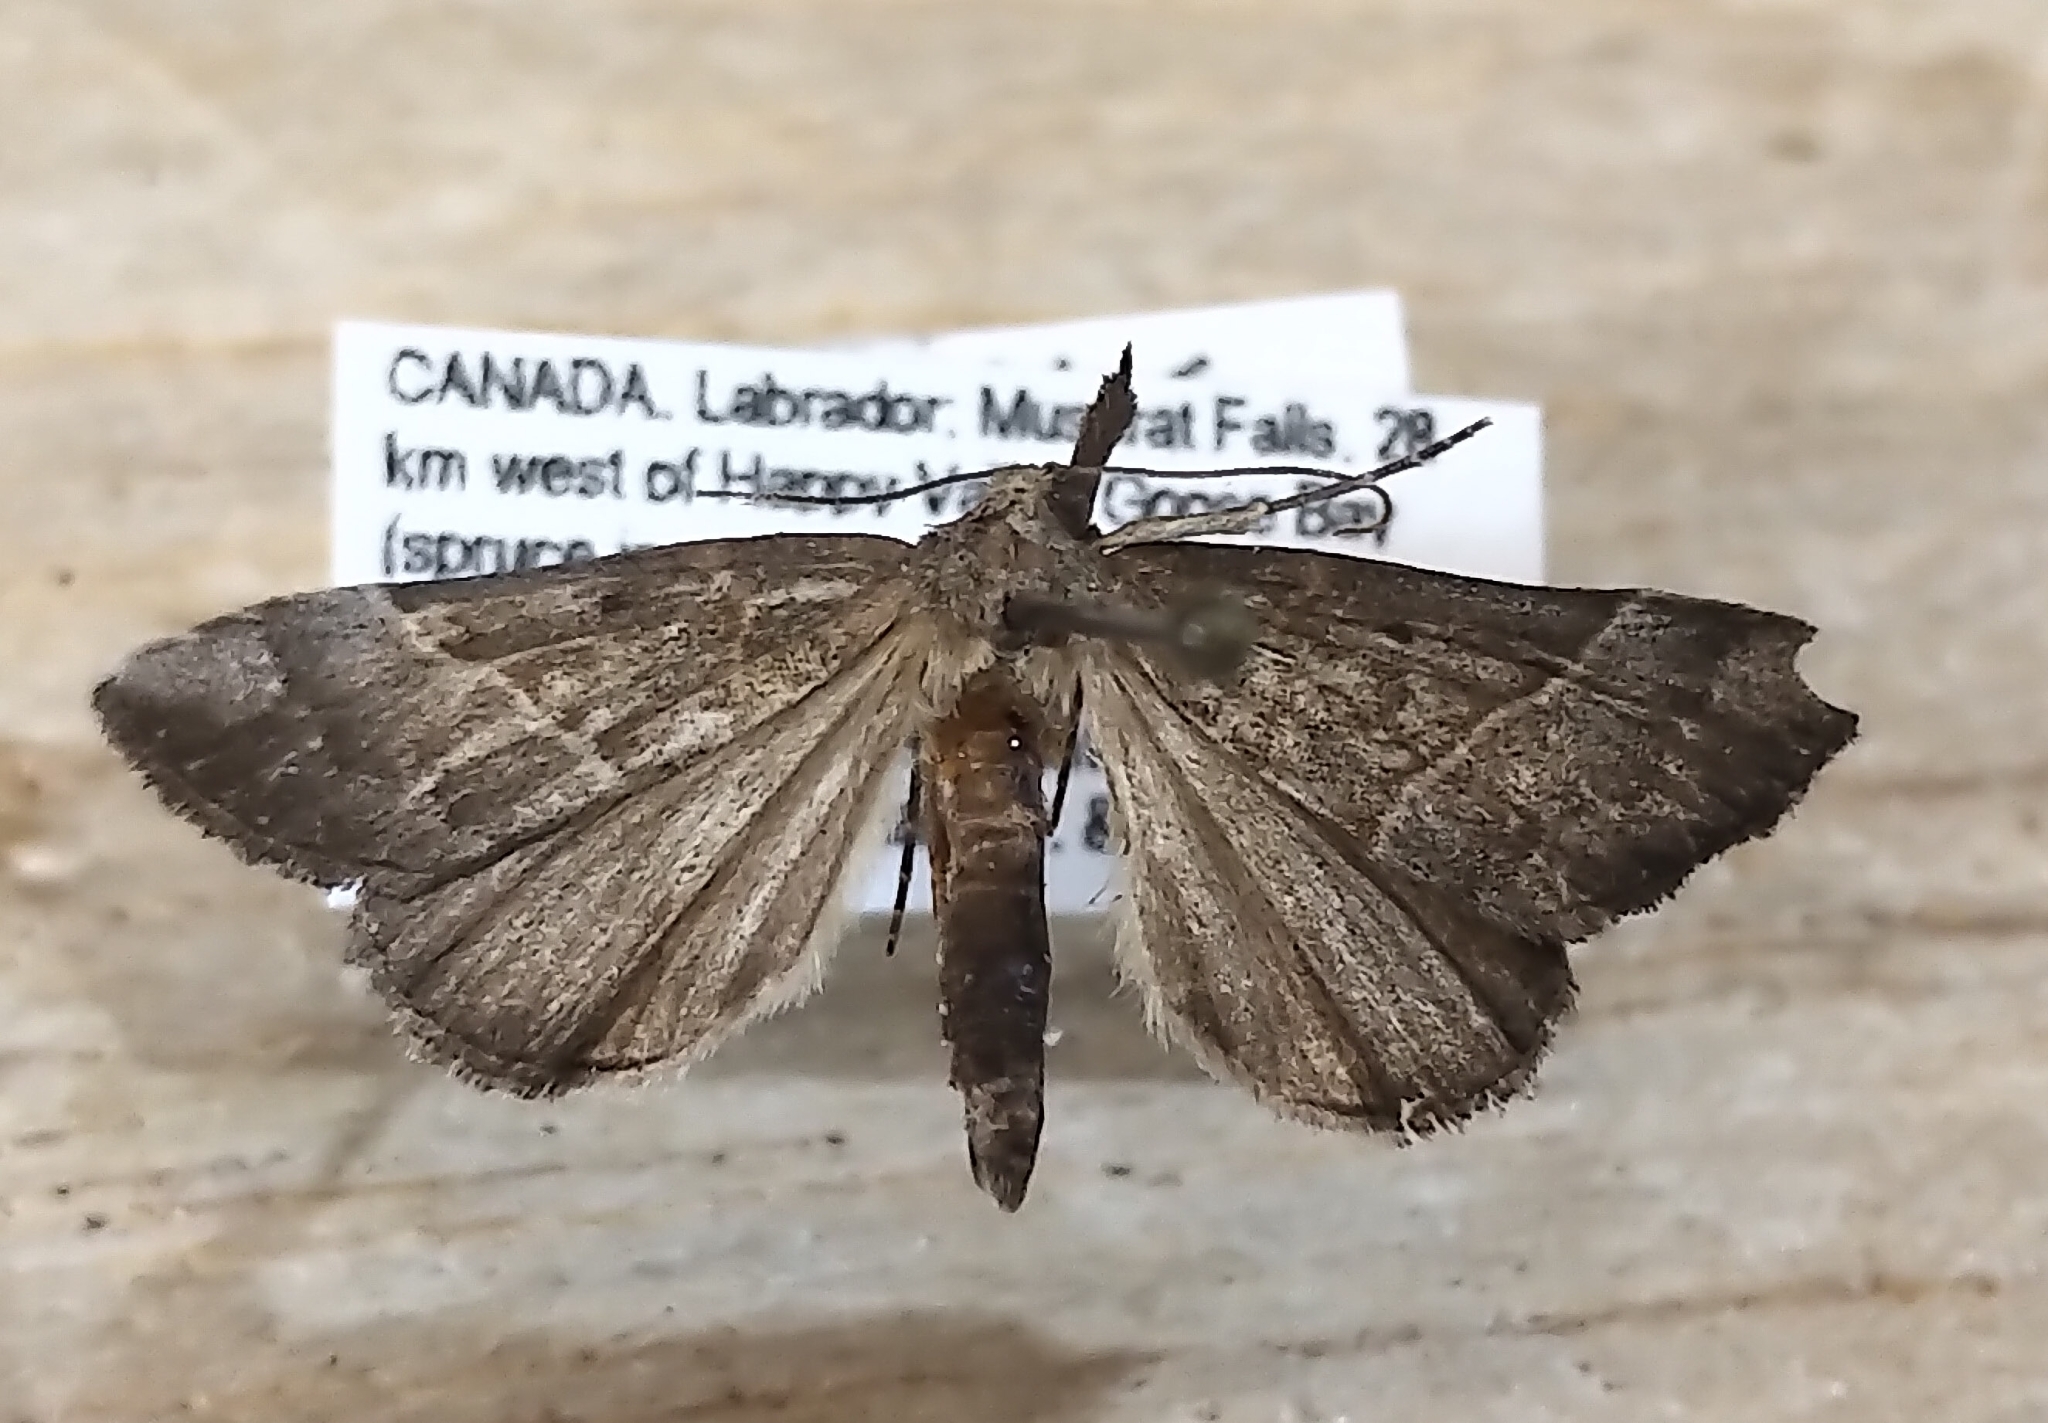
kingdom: Animalia
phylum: Arthropoda
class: Insecta
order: Lepidoptera
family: Erebidae
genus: Hypena
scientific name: Hypena eductalis
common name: Red-footed snout
